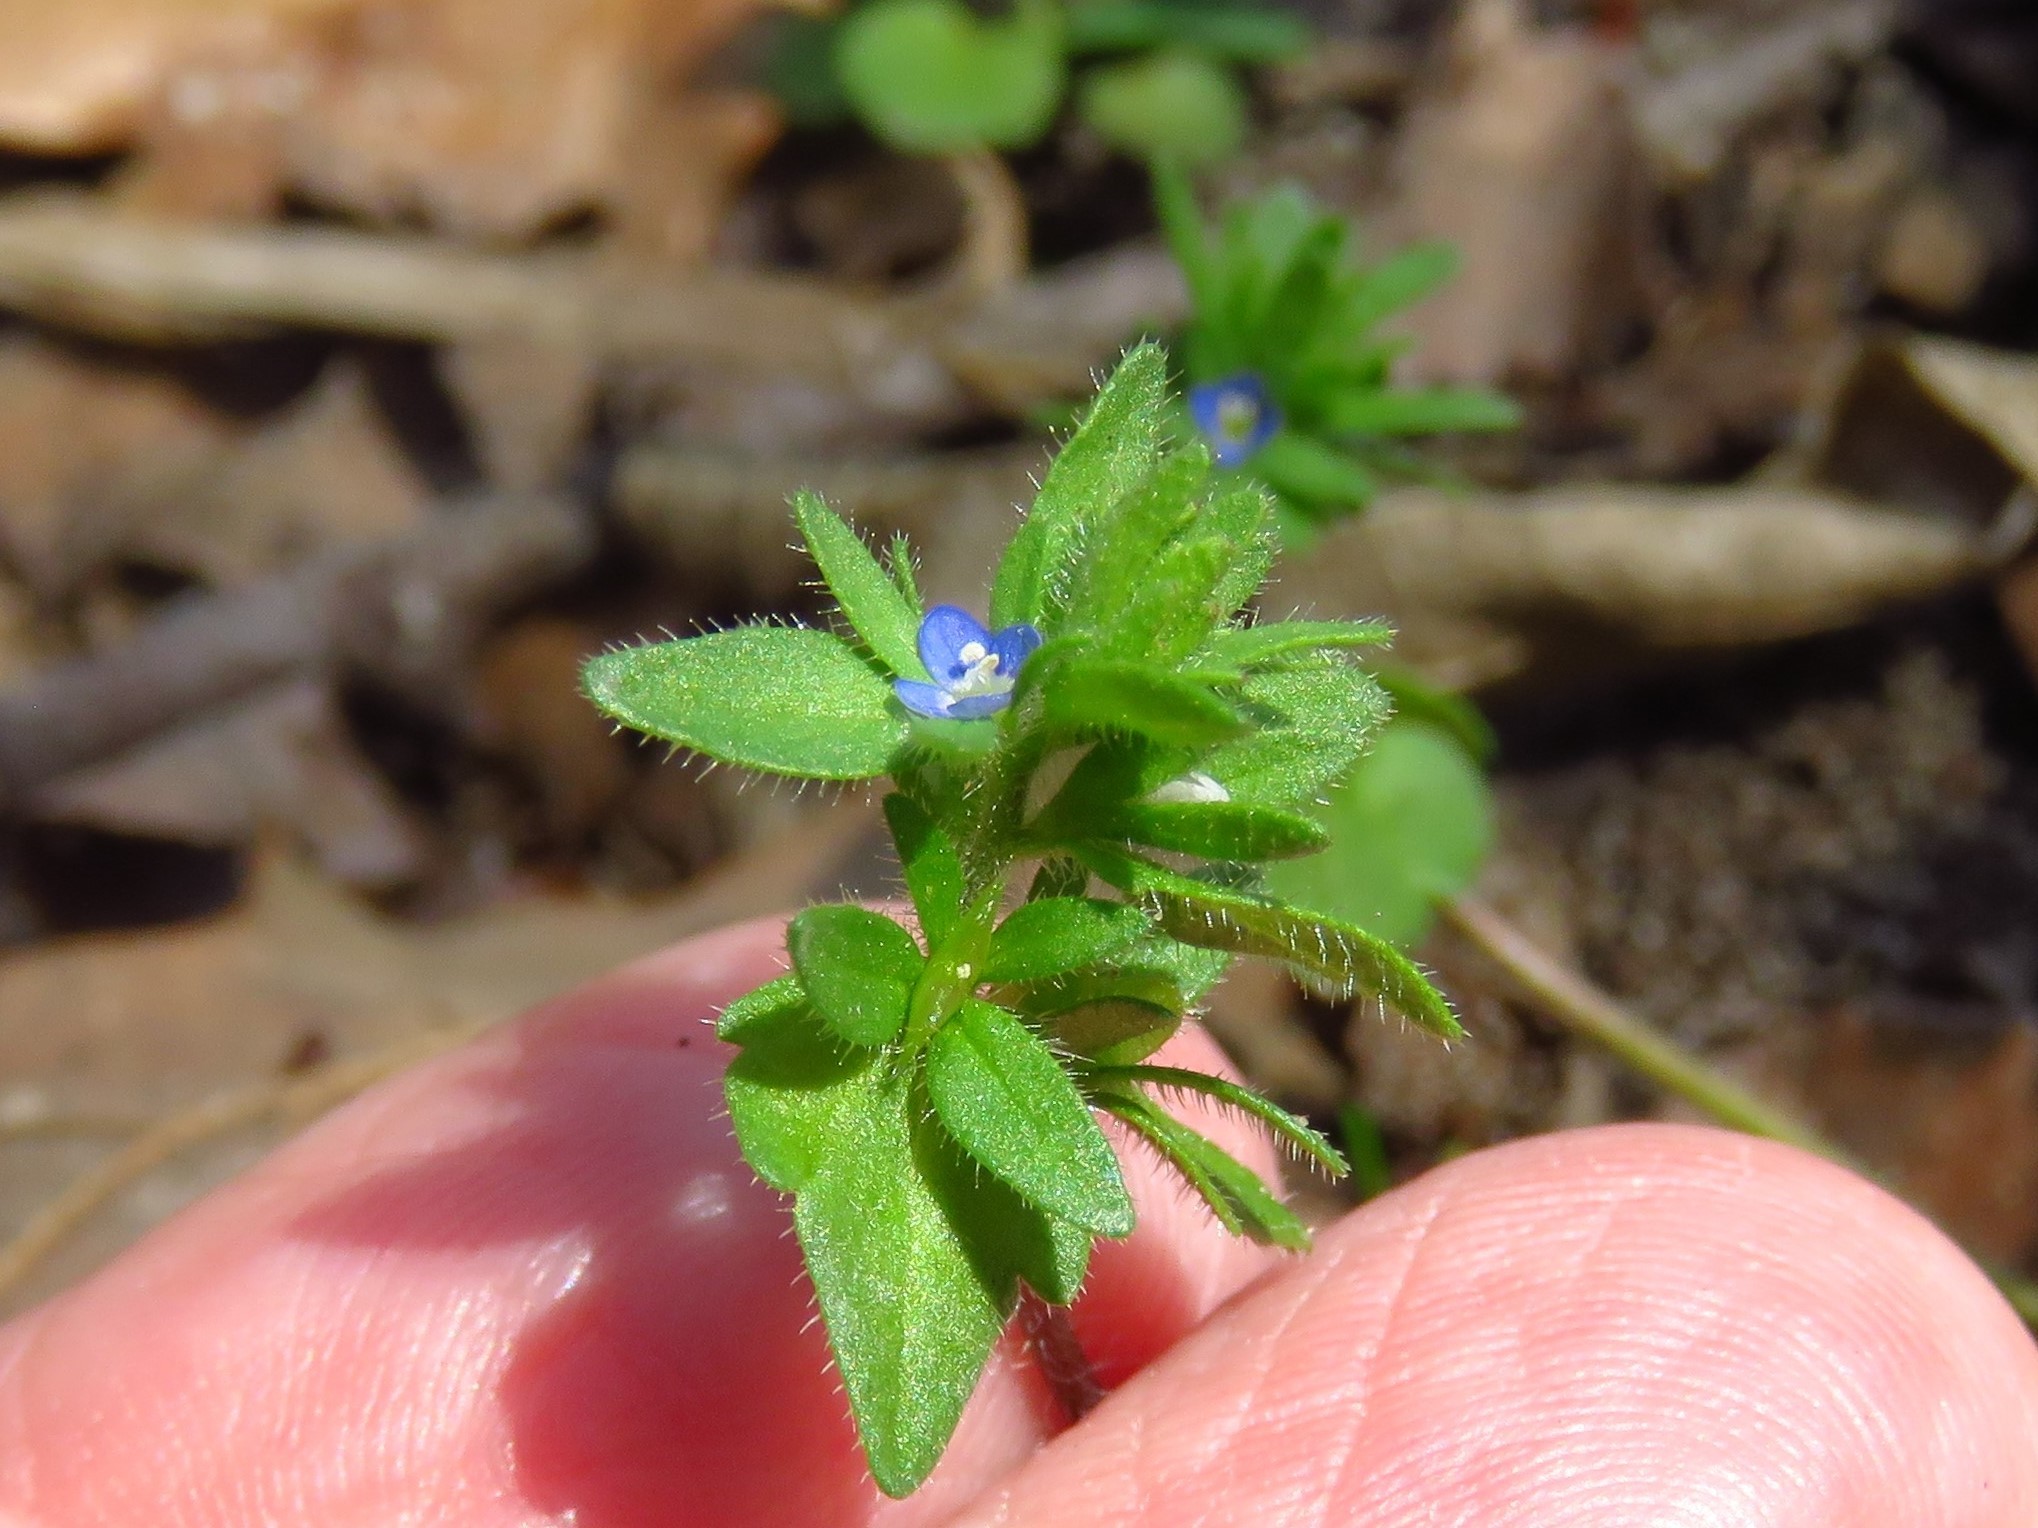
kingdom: Plantae
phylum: Tracheophyta
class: Magnoliopsida
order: Lamiales
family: Plantaginaceae
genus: Veronica
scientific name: Veronica arvensis
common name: Corn speedwell
